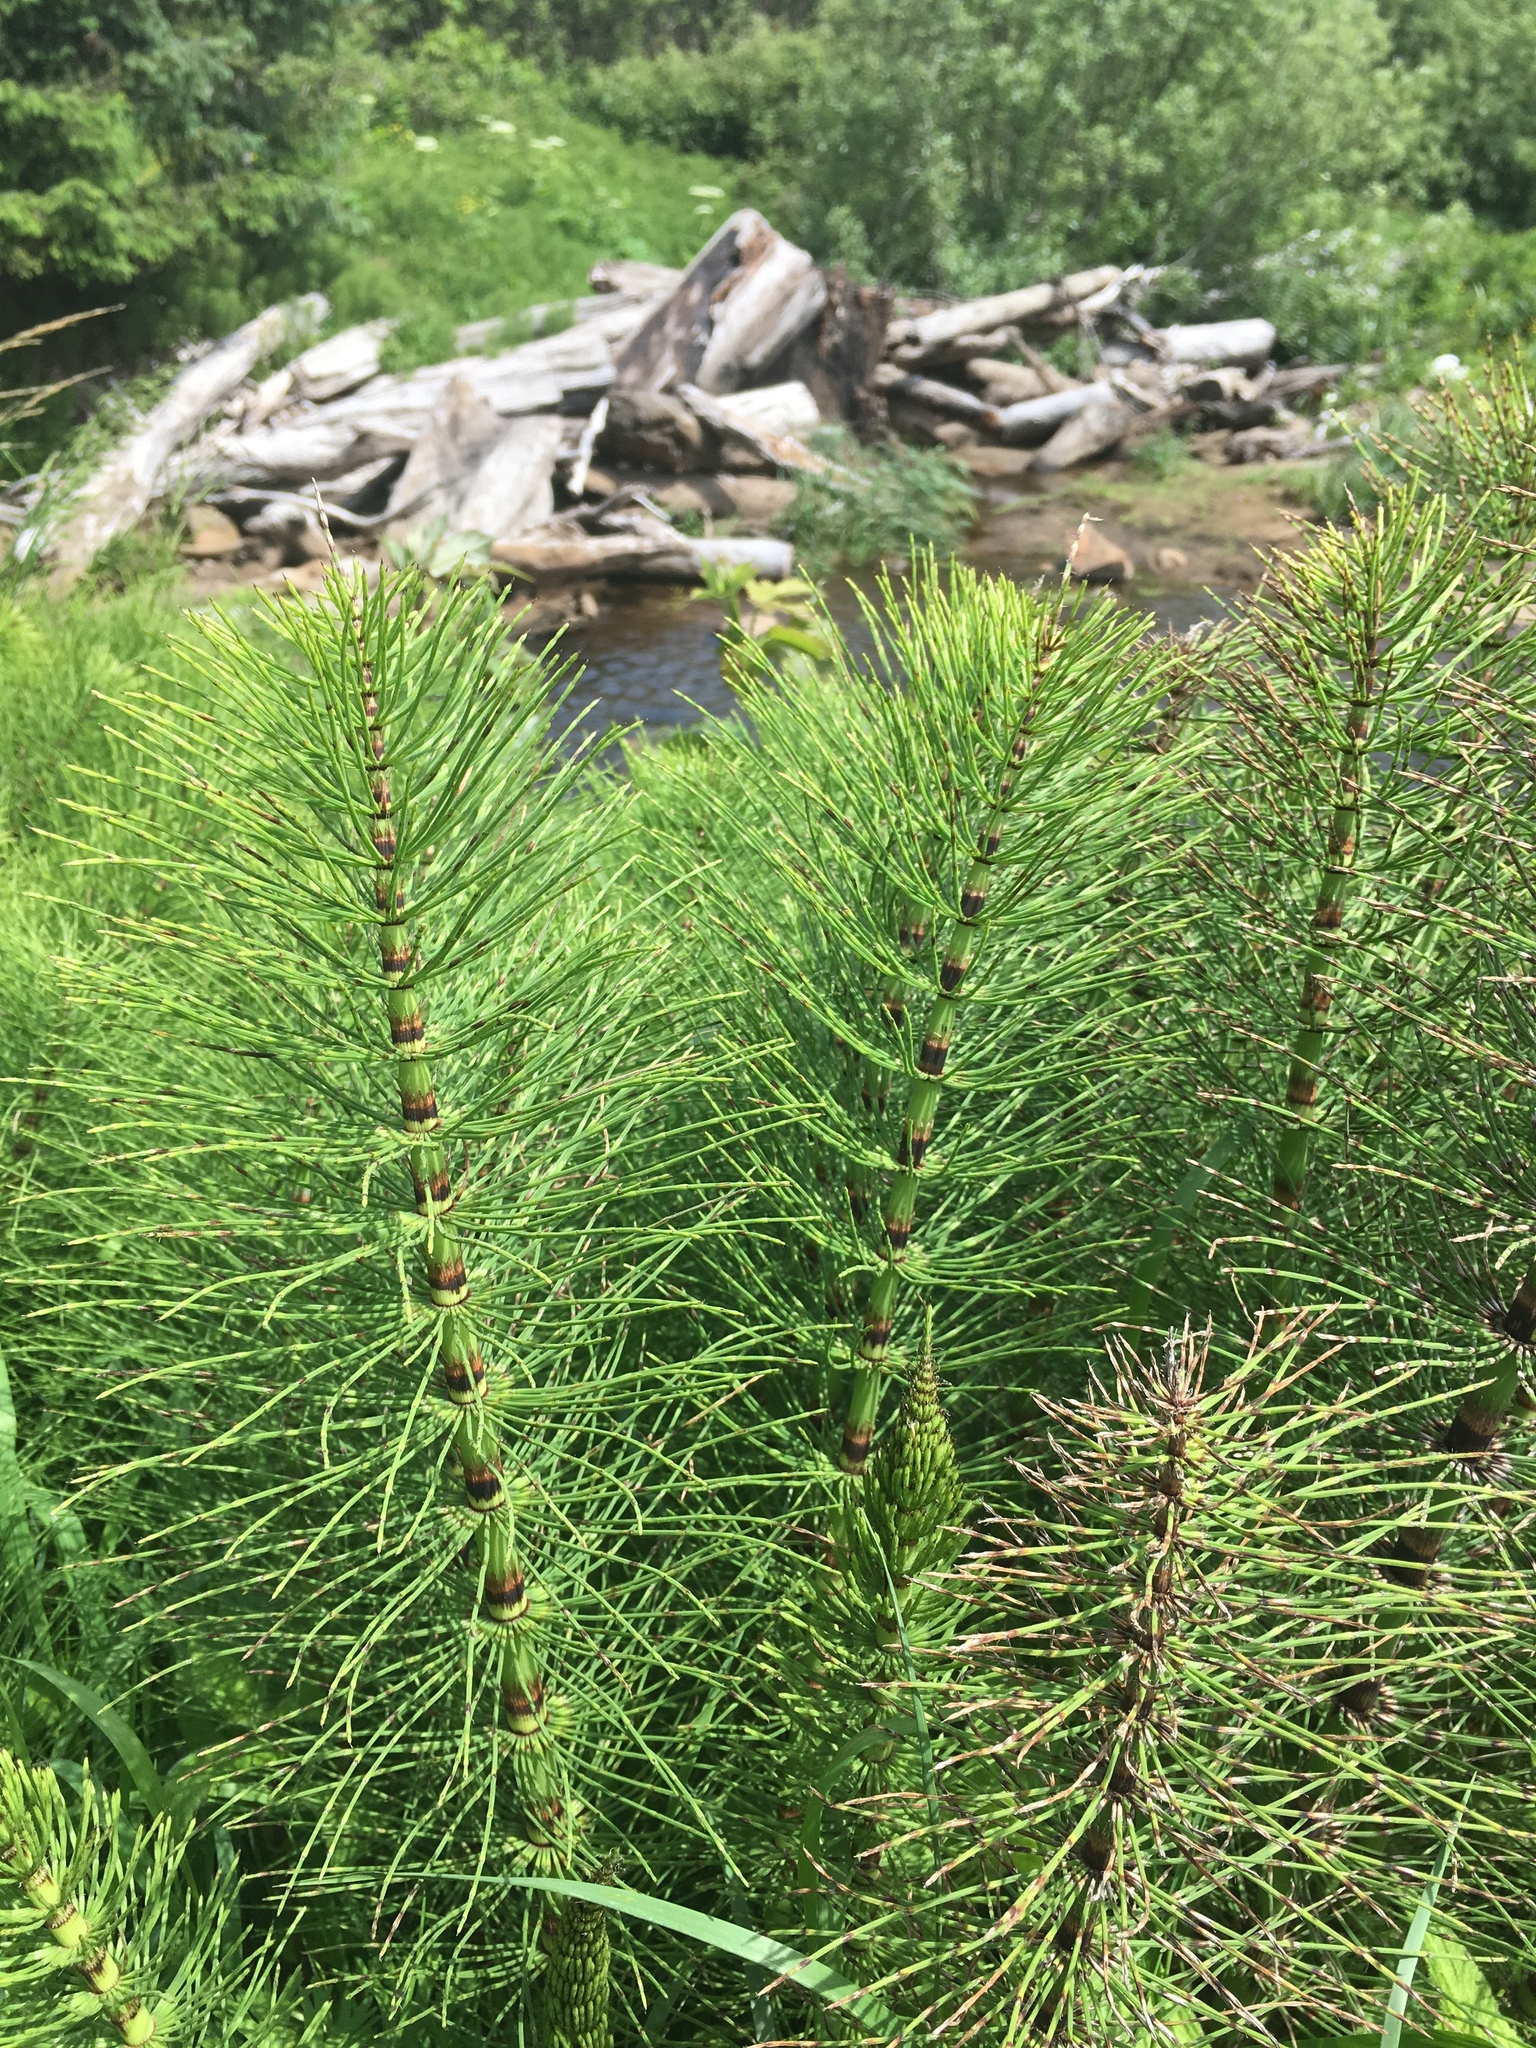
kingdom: Plantae
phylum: Tracheophyta
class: Polypodiopsida
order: Equisetales
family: Equisetaceae
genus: Equisetum
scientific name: Equisetum braunii
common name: Braun's horsetail
